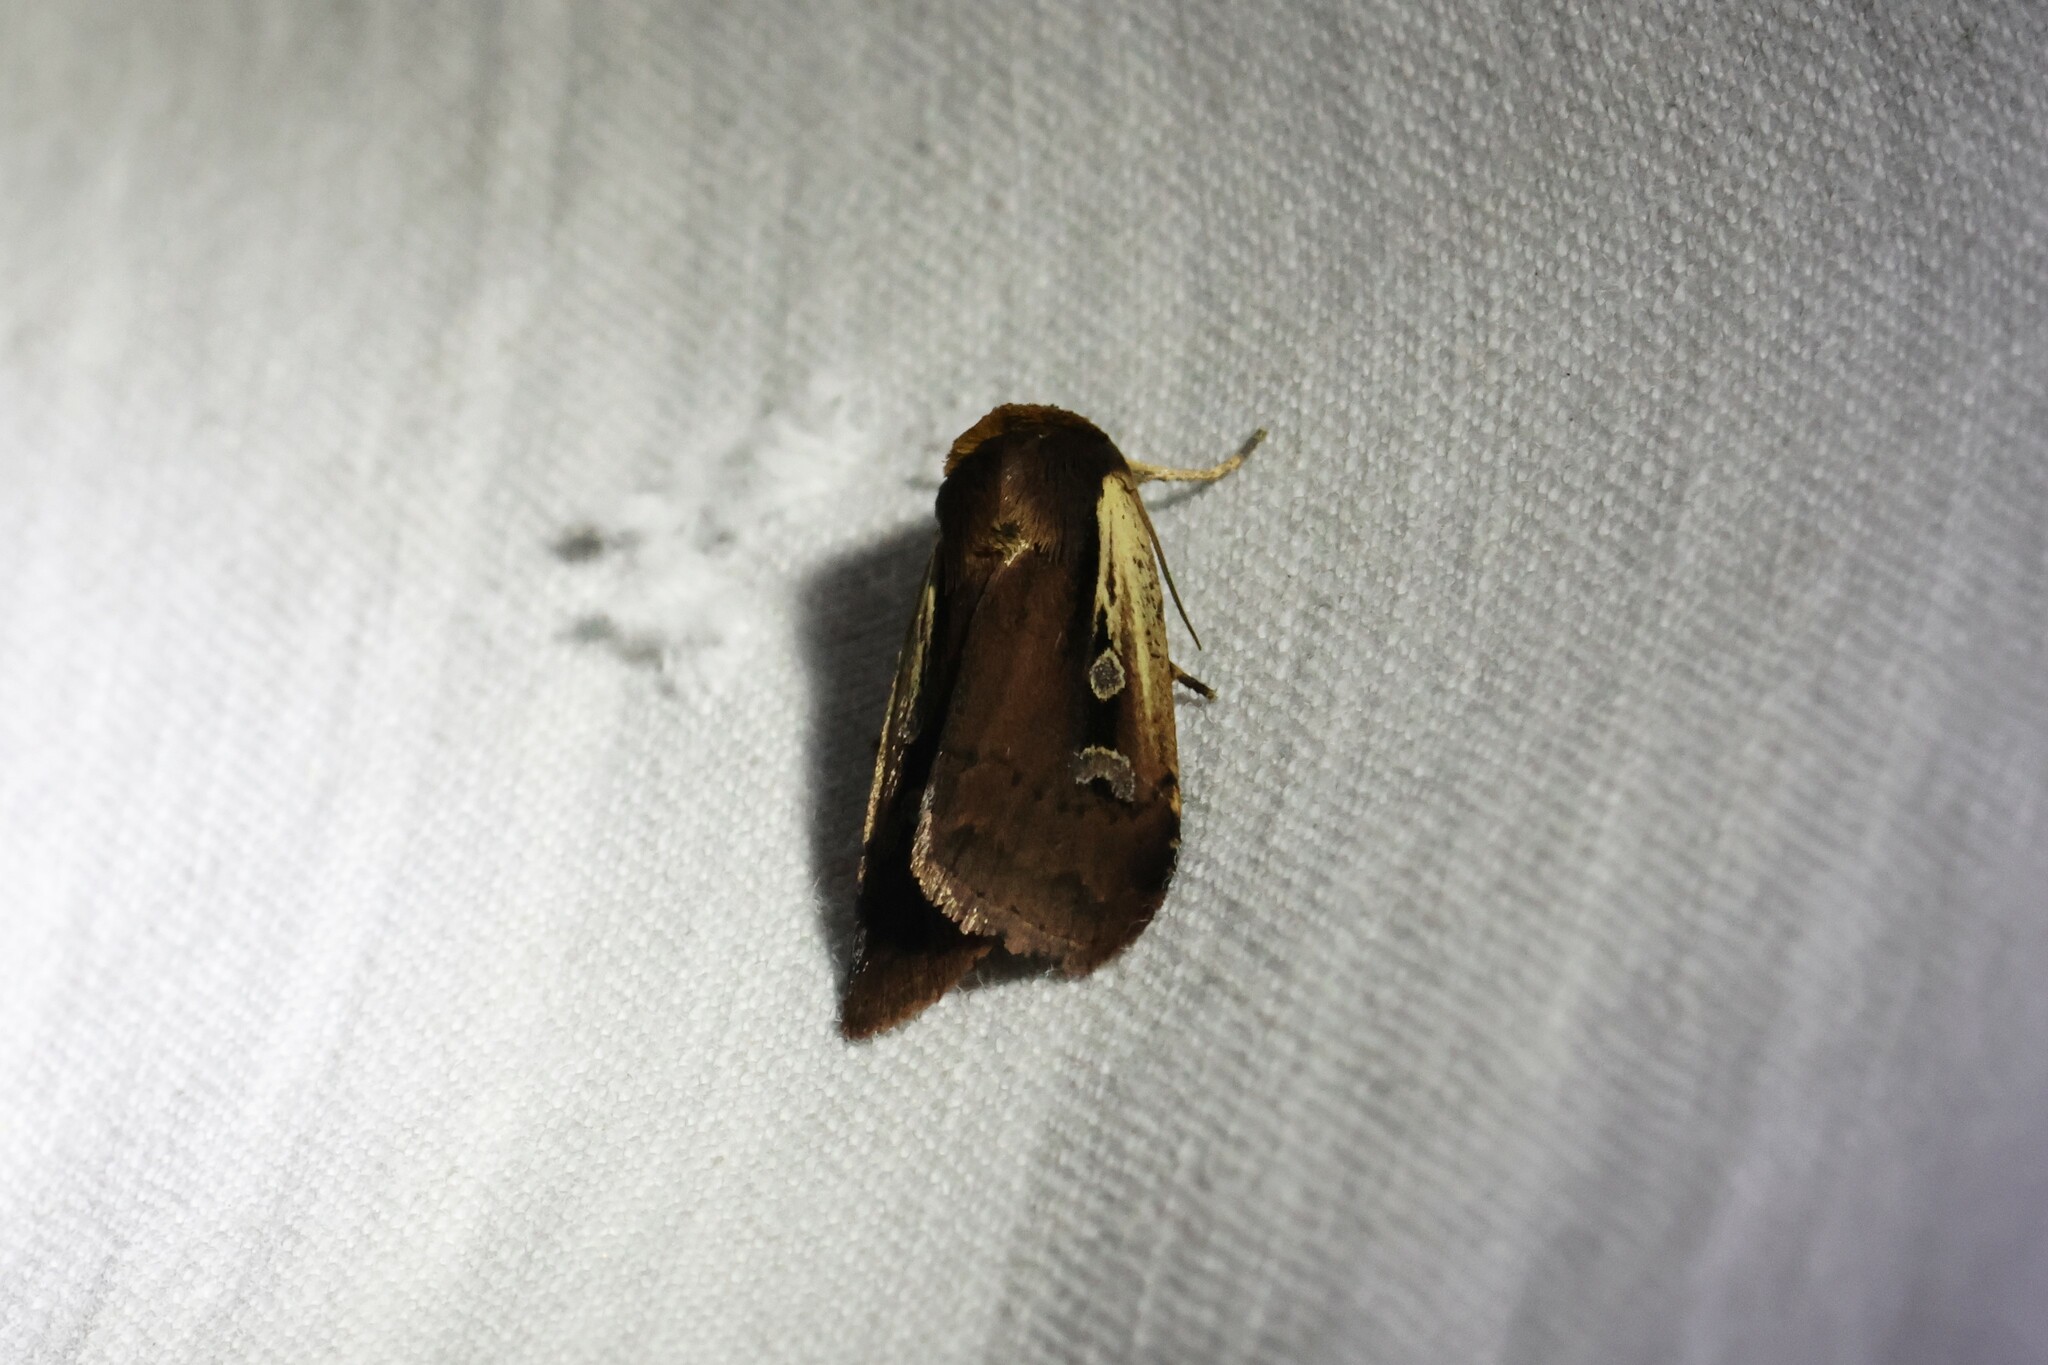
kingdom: Animalia
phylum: Arthropoda
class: Insecta
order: Lepidoptera
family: Noctuidae
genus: Ochropleura
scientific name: Ochropleura implecta
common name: Flame-shouldered dart
